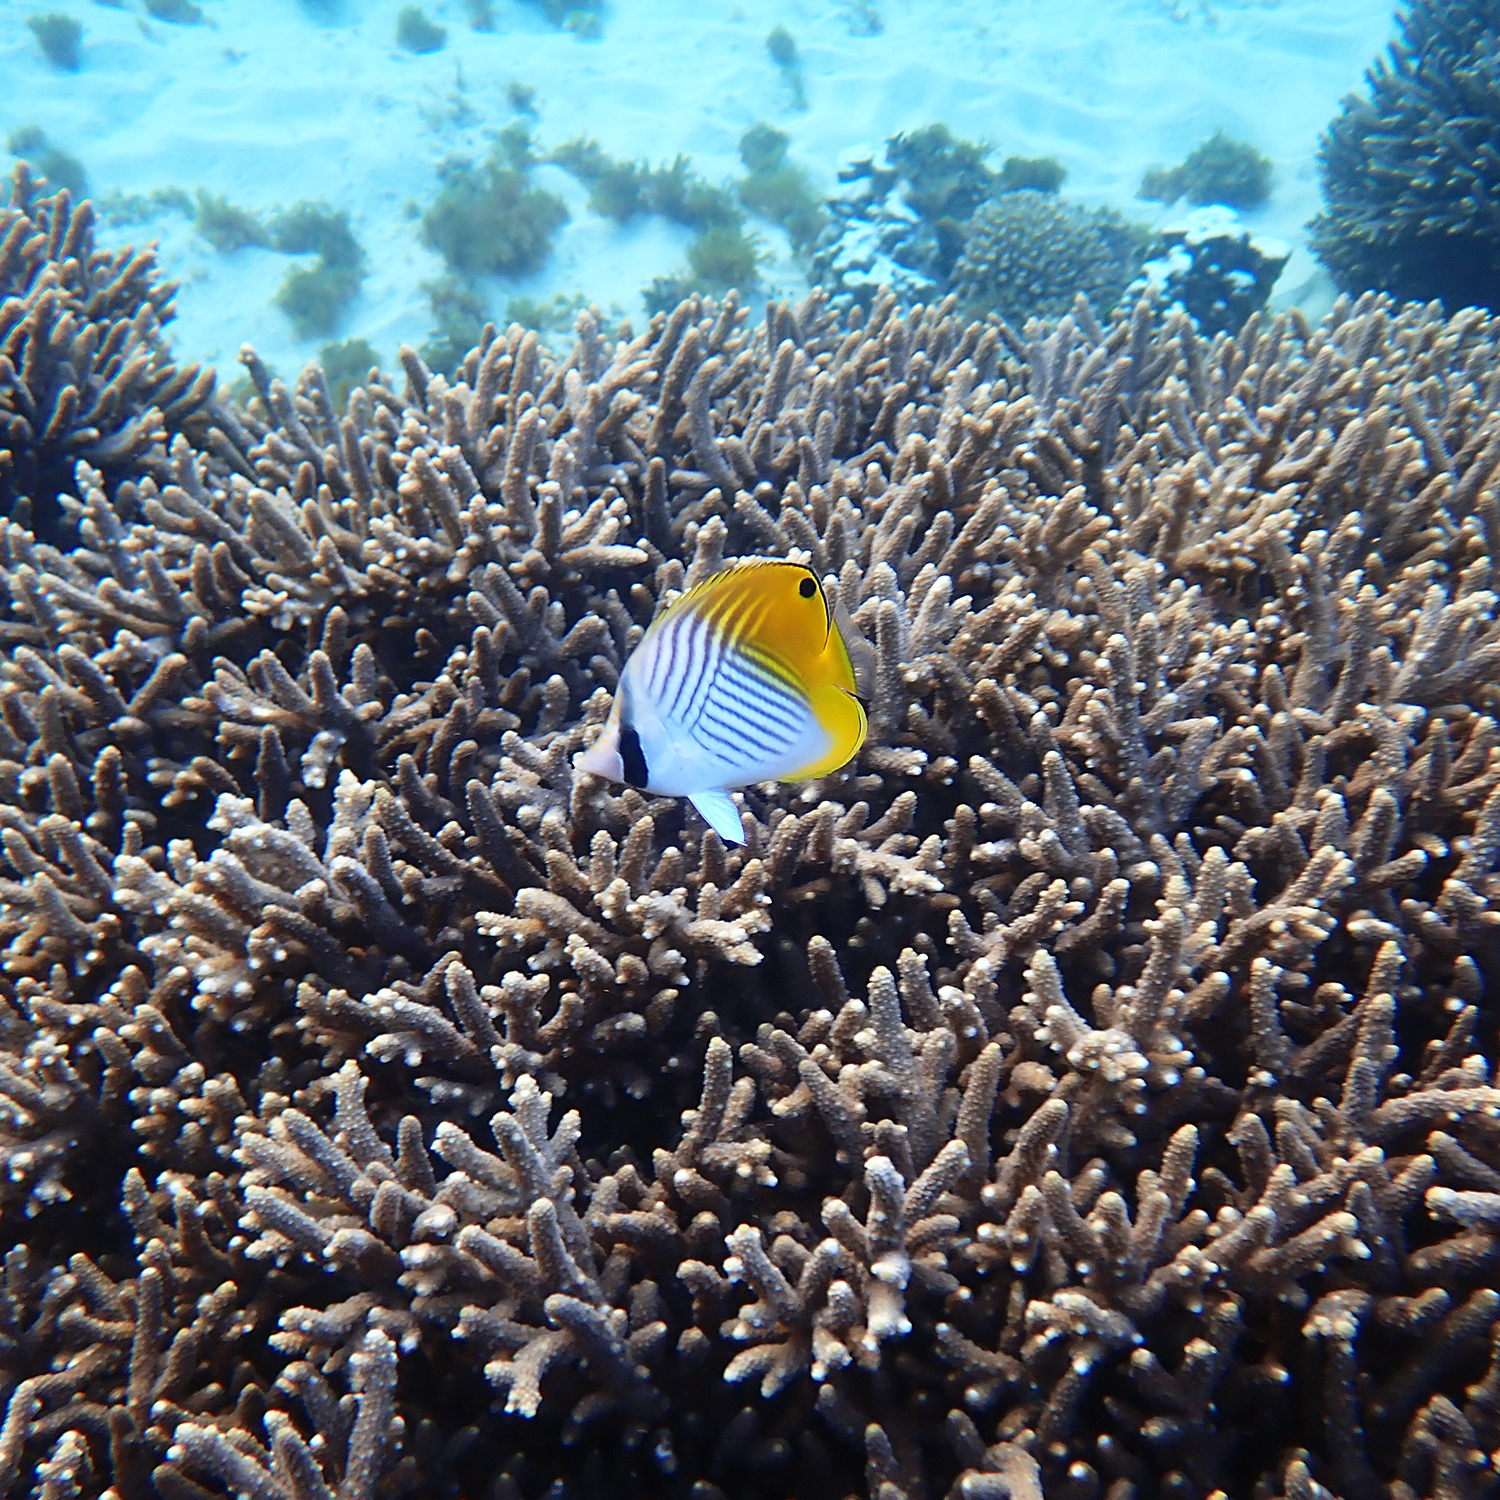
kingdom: Animalia
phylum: Chordata
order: Perciformes
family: Chaetodontidae
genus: Chaetodon
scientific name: Chaetodon auriga
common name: Threadfin butterflyfish
